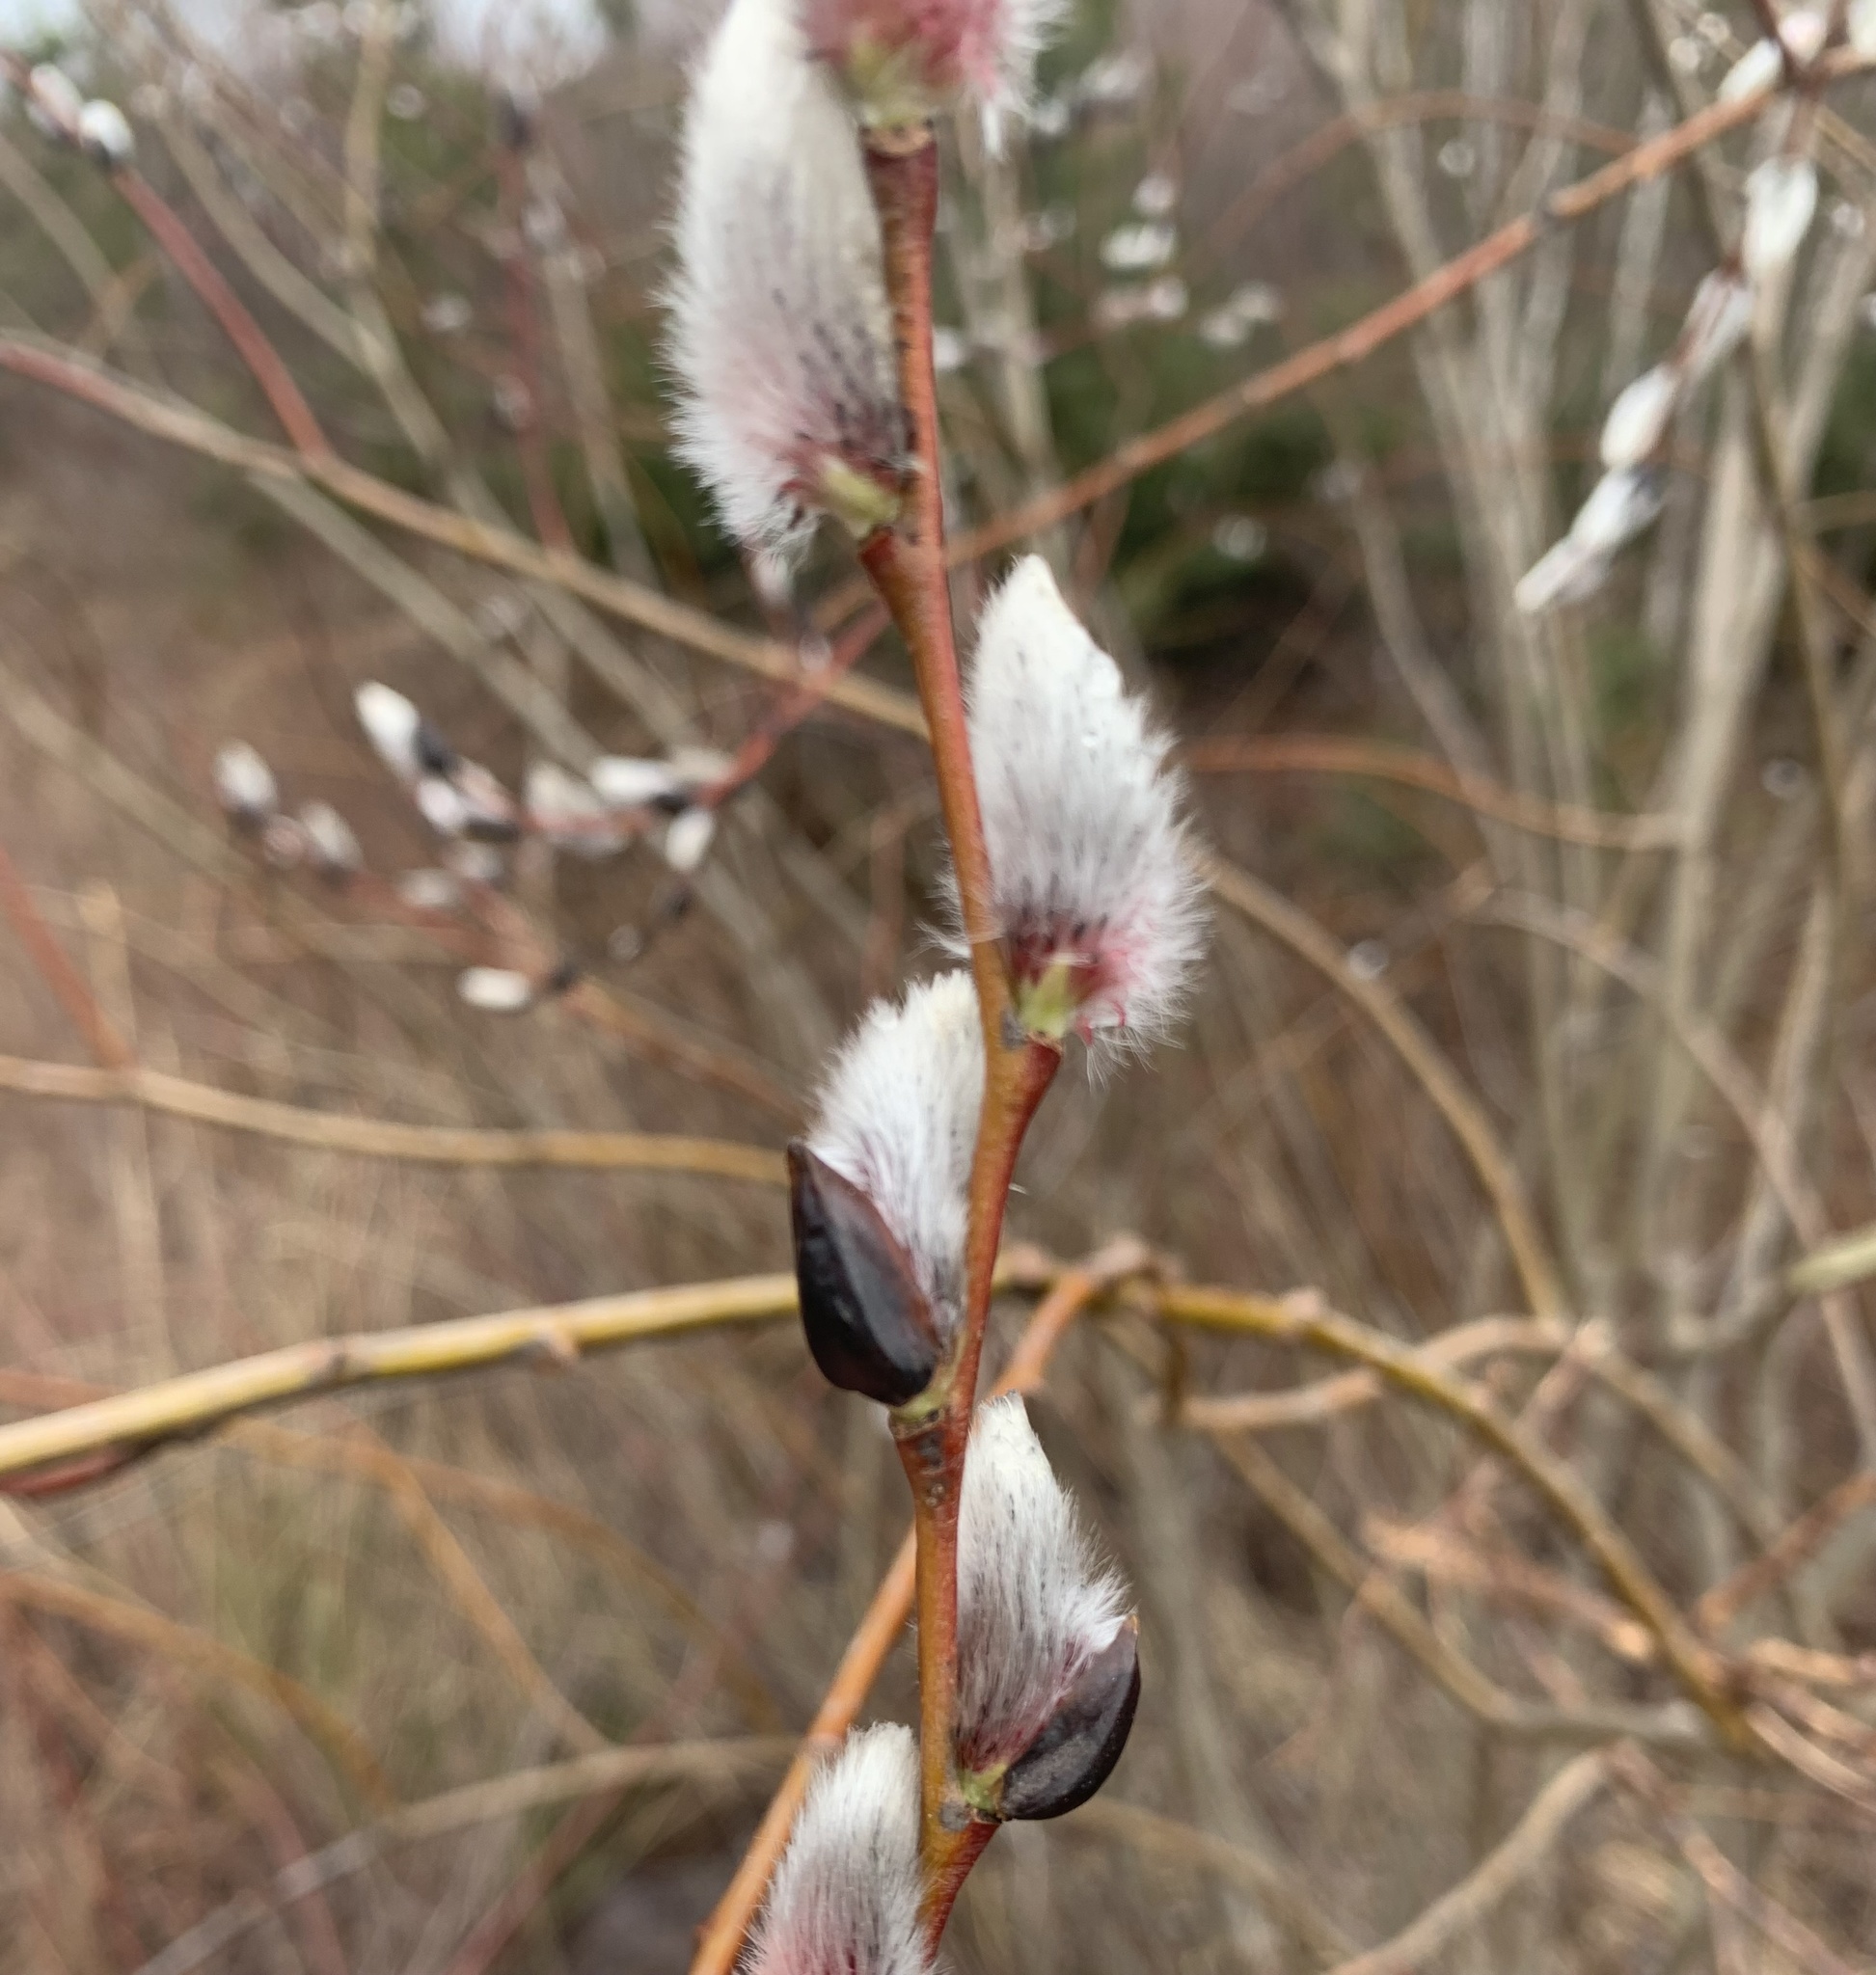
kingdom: Plantae
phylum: Tracheophyta
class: Magnoliopsida
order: Malpighiales
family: Salicaceae
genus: Salix
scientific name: Salix discolor
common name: Glaucous willow
